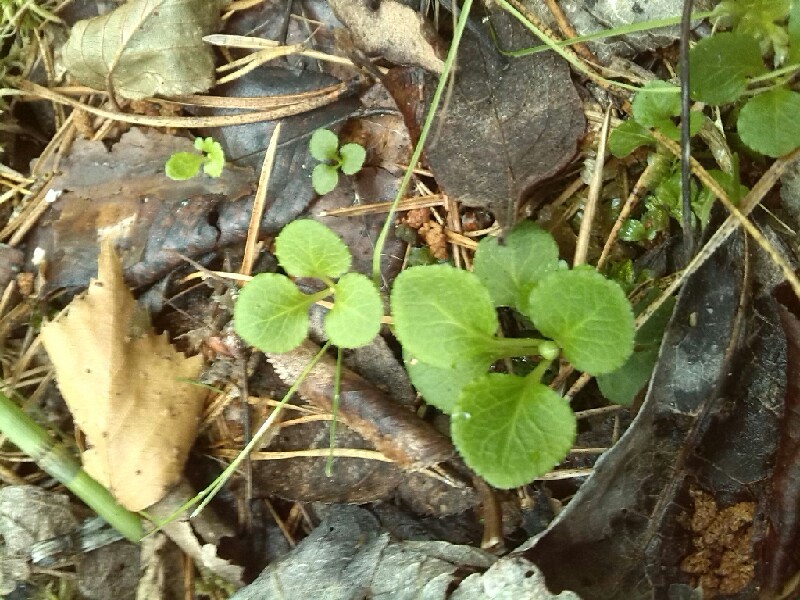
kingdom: Plantae
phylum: Tracheophyta
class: Magnoliopsida
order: Ericales
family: Ericaceae
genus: Moneses
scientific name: Moneses uniflora
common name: One-flowered wintergreen
